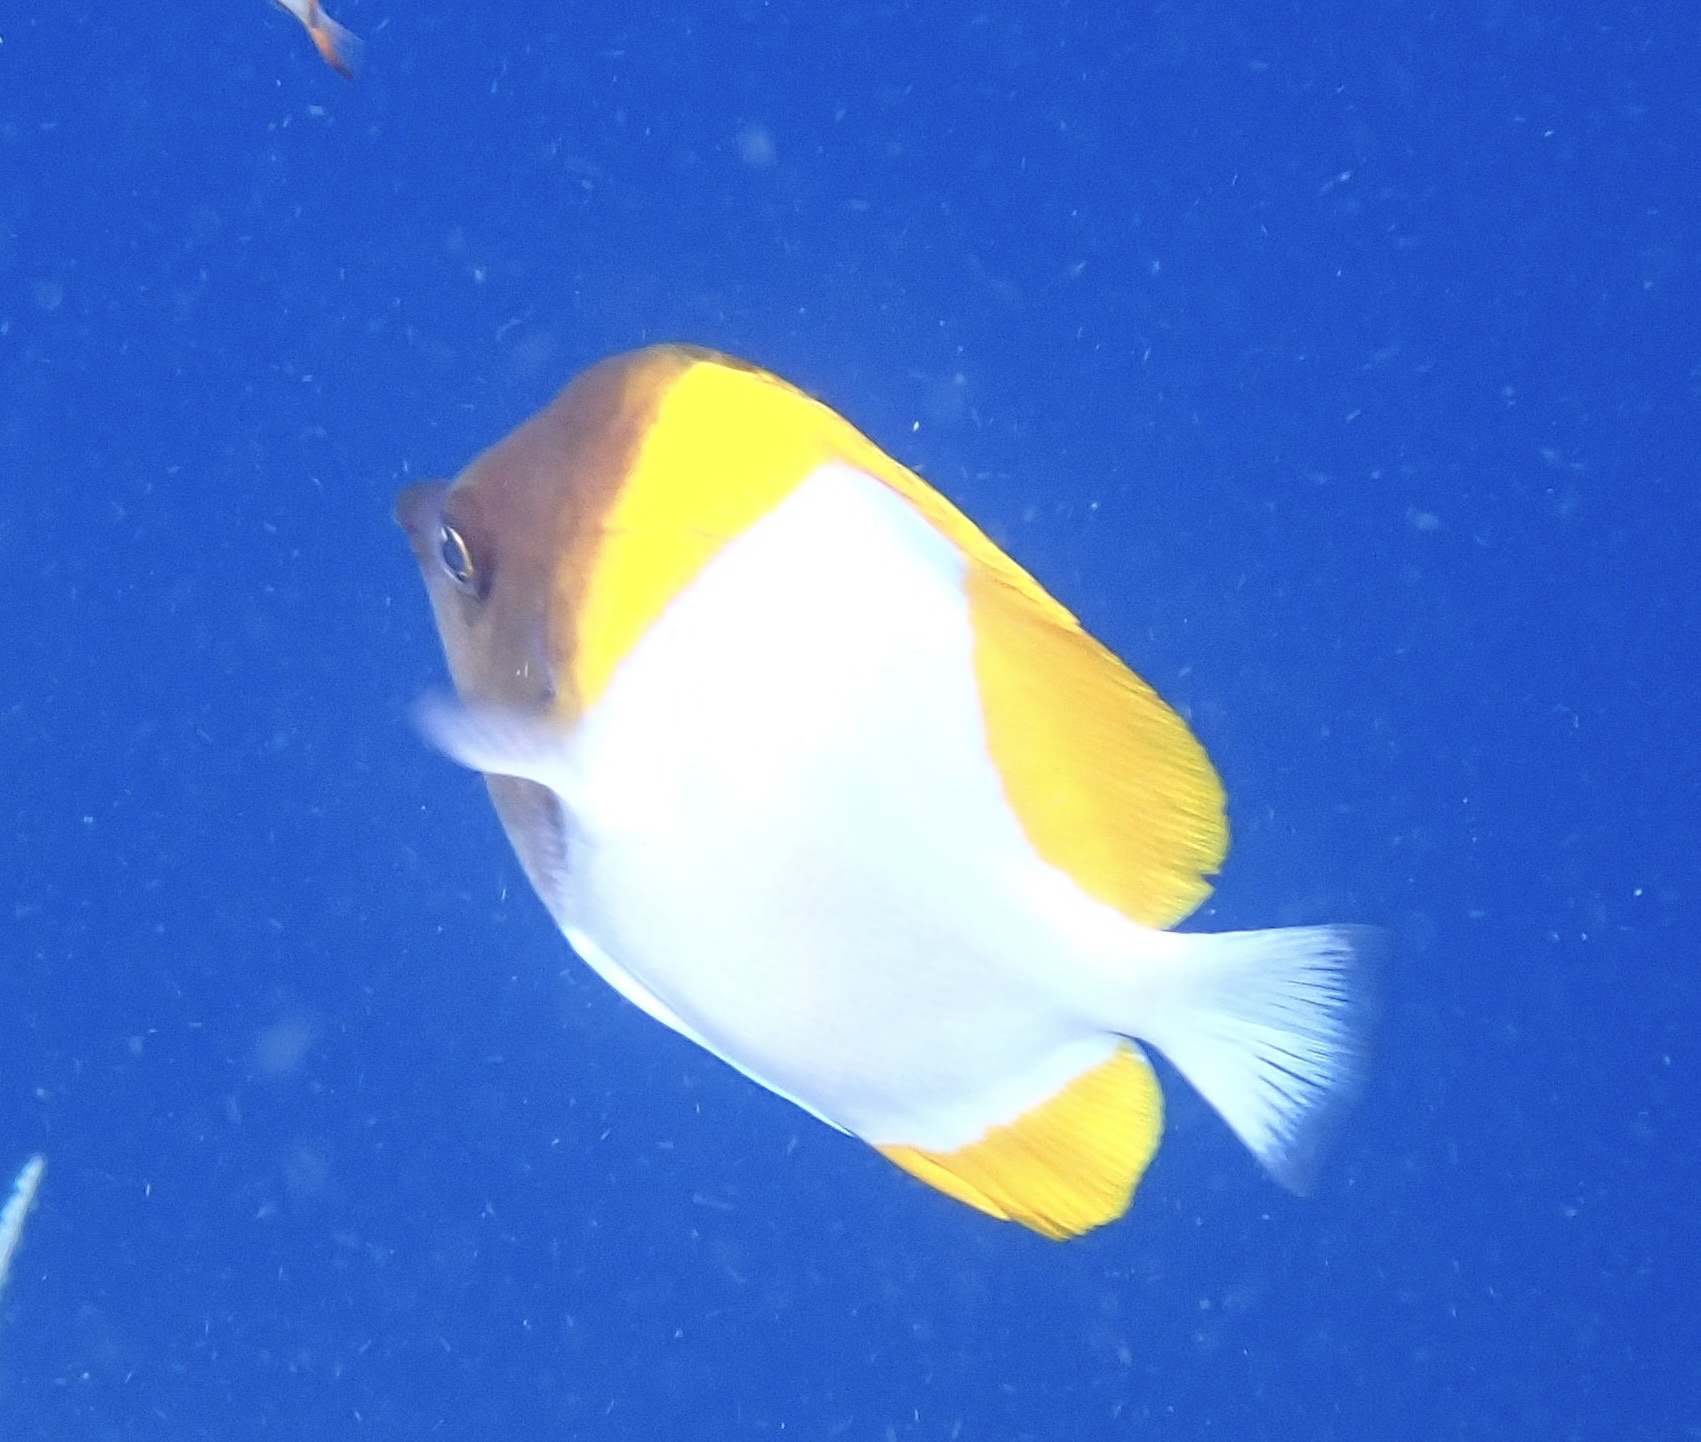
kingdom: Animalia
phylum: Chordata
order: Perciformes
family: Chaetodontidae
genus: Hemitaurichthys
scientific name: Hemitaurichthys polylepis
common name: Brushytoothed butterflyfish
